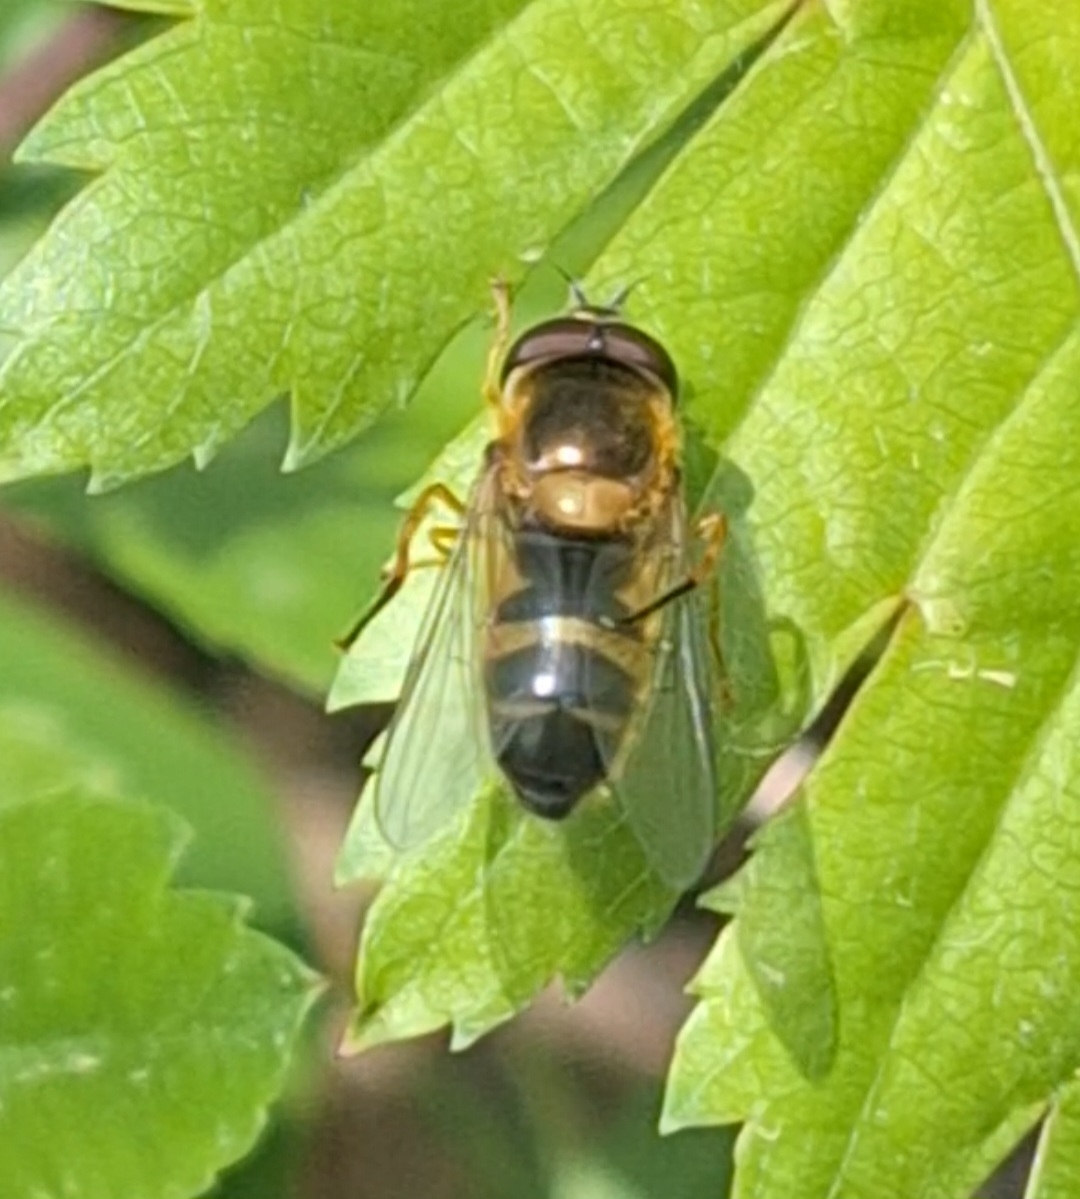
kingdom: Animalia
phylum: Arthropoda
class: Insecta
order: Diptera
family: Syrphidae
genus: Epistrophe
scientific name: Epistrophe eligans
